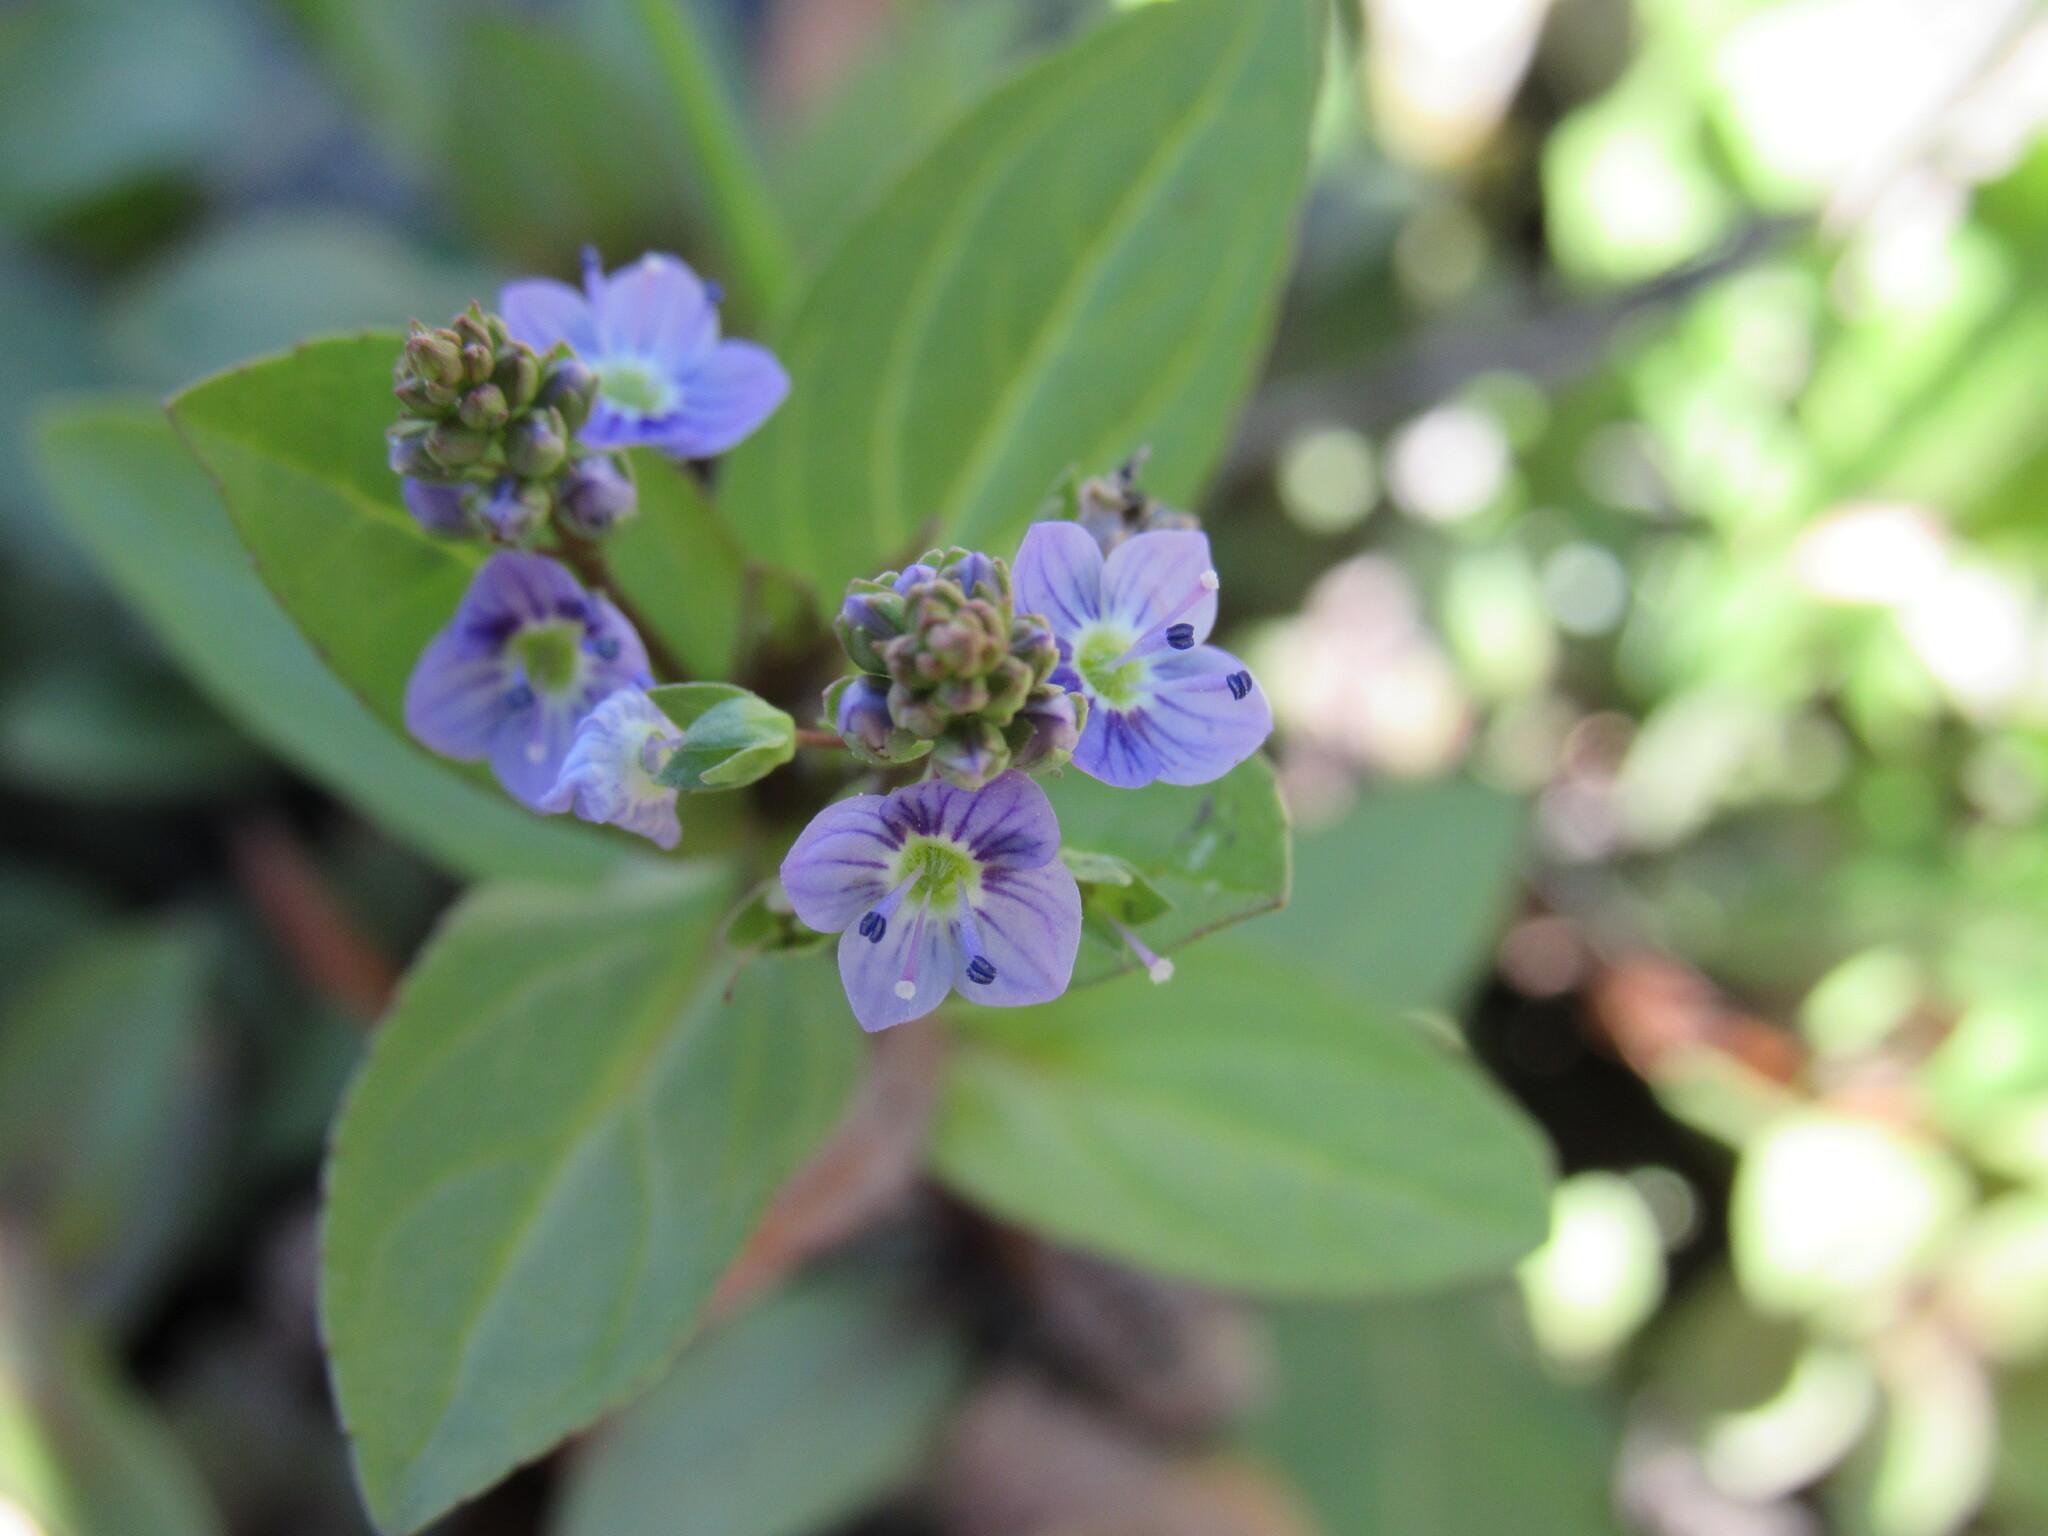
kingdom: Plantae
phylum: Tracheophyta
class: Magnoliopsida
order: Lamiales
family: Plantaginaceae
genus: Veronica
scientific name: Veronica anagallis-aquatica
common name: Water speedwell
